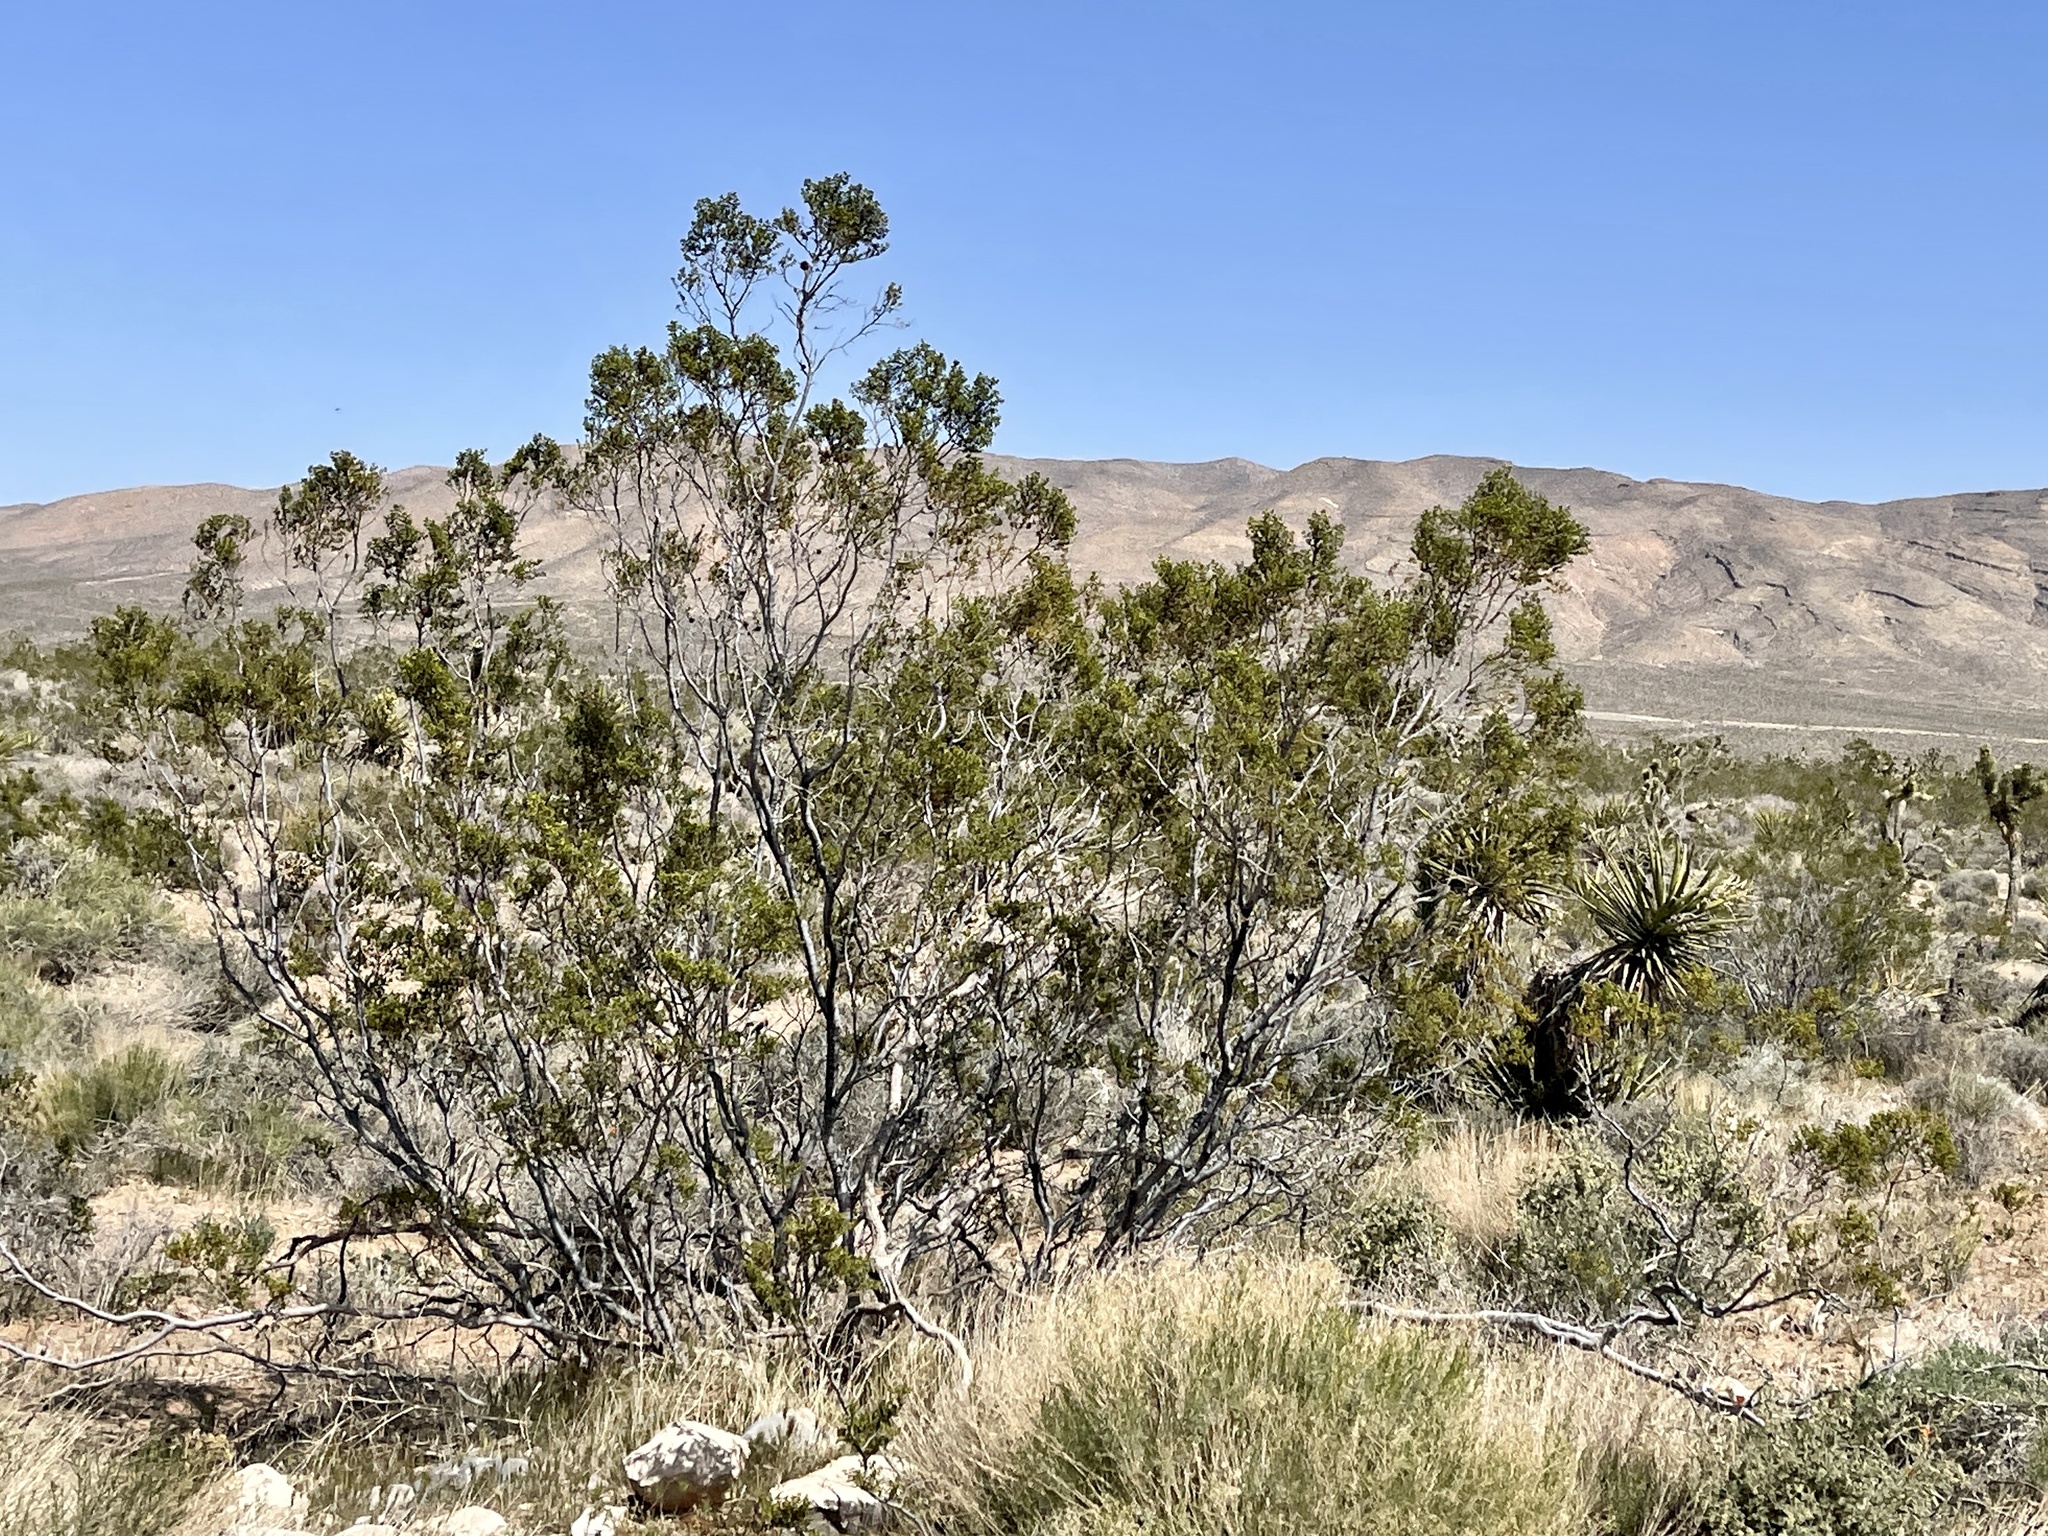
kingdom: Plantae
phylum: Tracheophyta
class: Magnoliopsida
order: Zygophyllales
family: Zygophyllaceae
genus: Larrea
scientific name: Larrea tridentata
